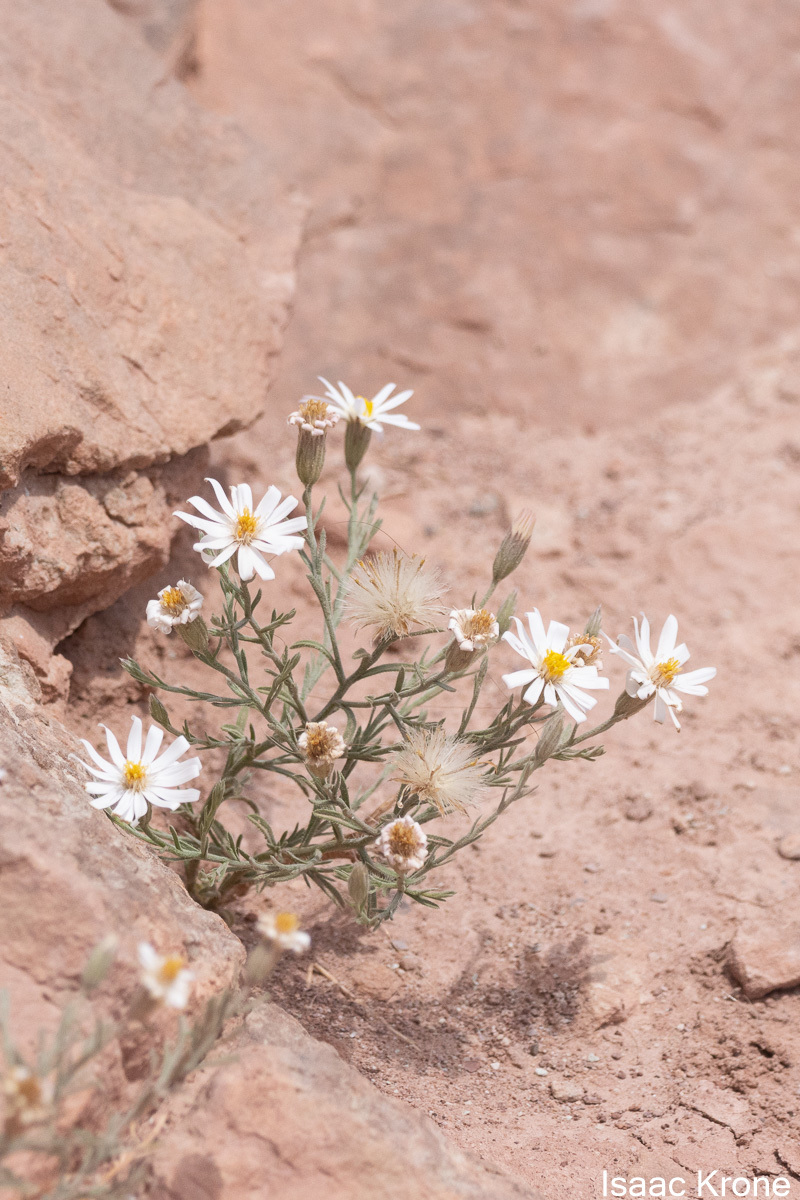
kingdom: Plantae
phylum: Tracheophyta
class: Magnoliopsida
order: Asterales
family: Asteraceae
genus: Chaetopappa
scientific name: Chaetopappa ericoides
